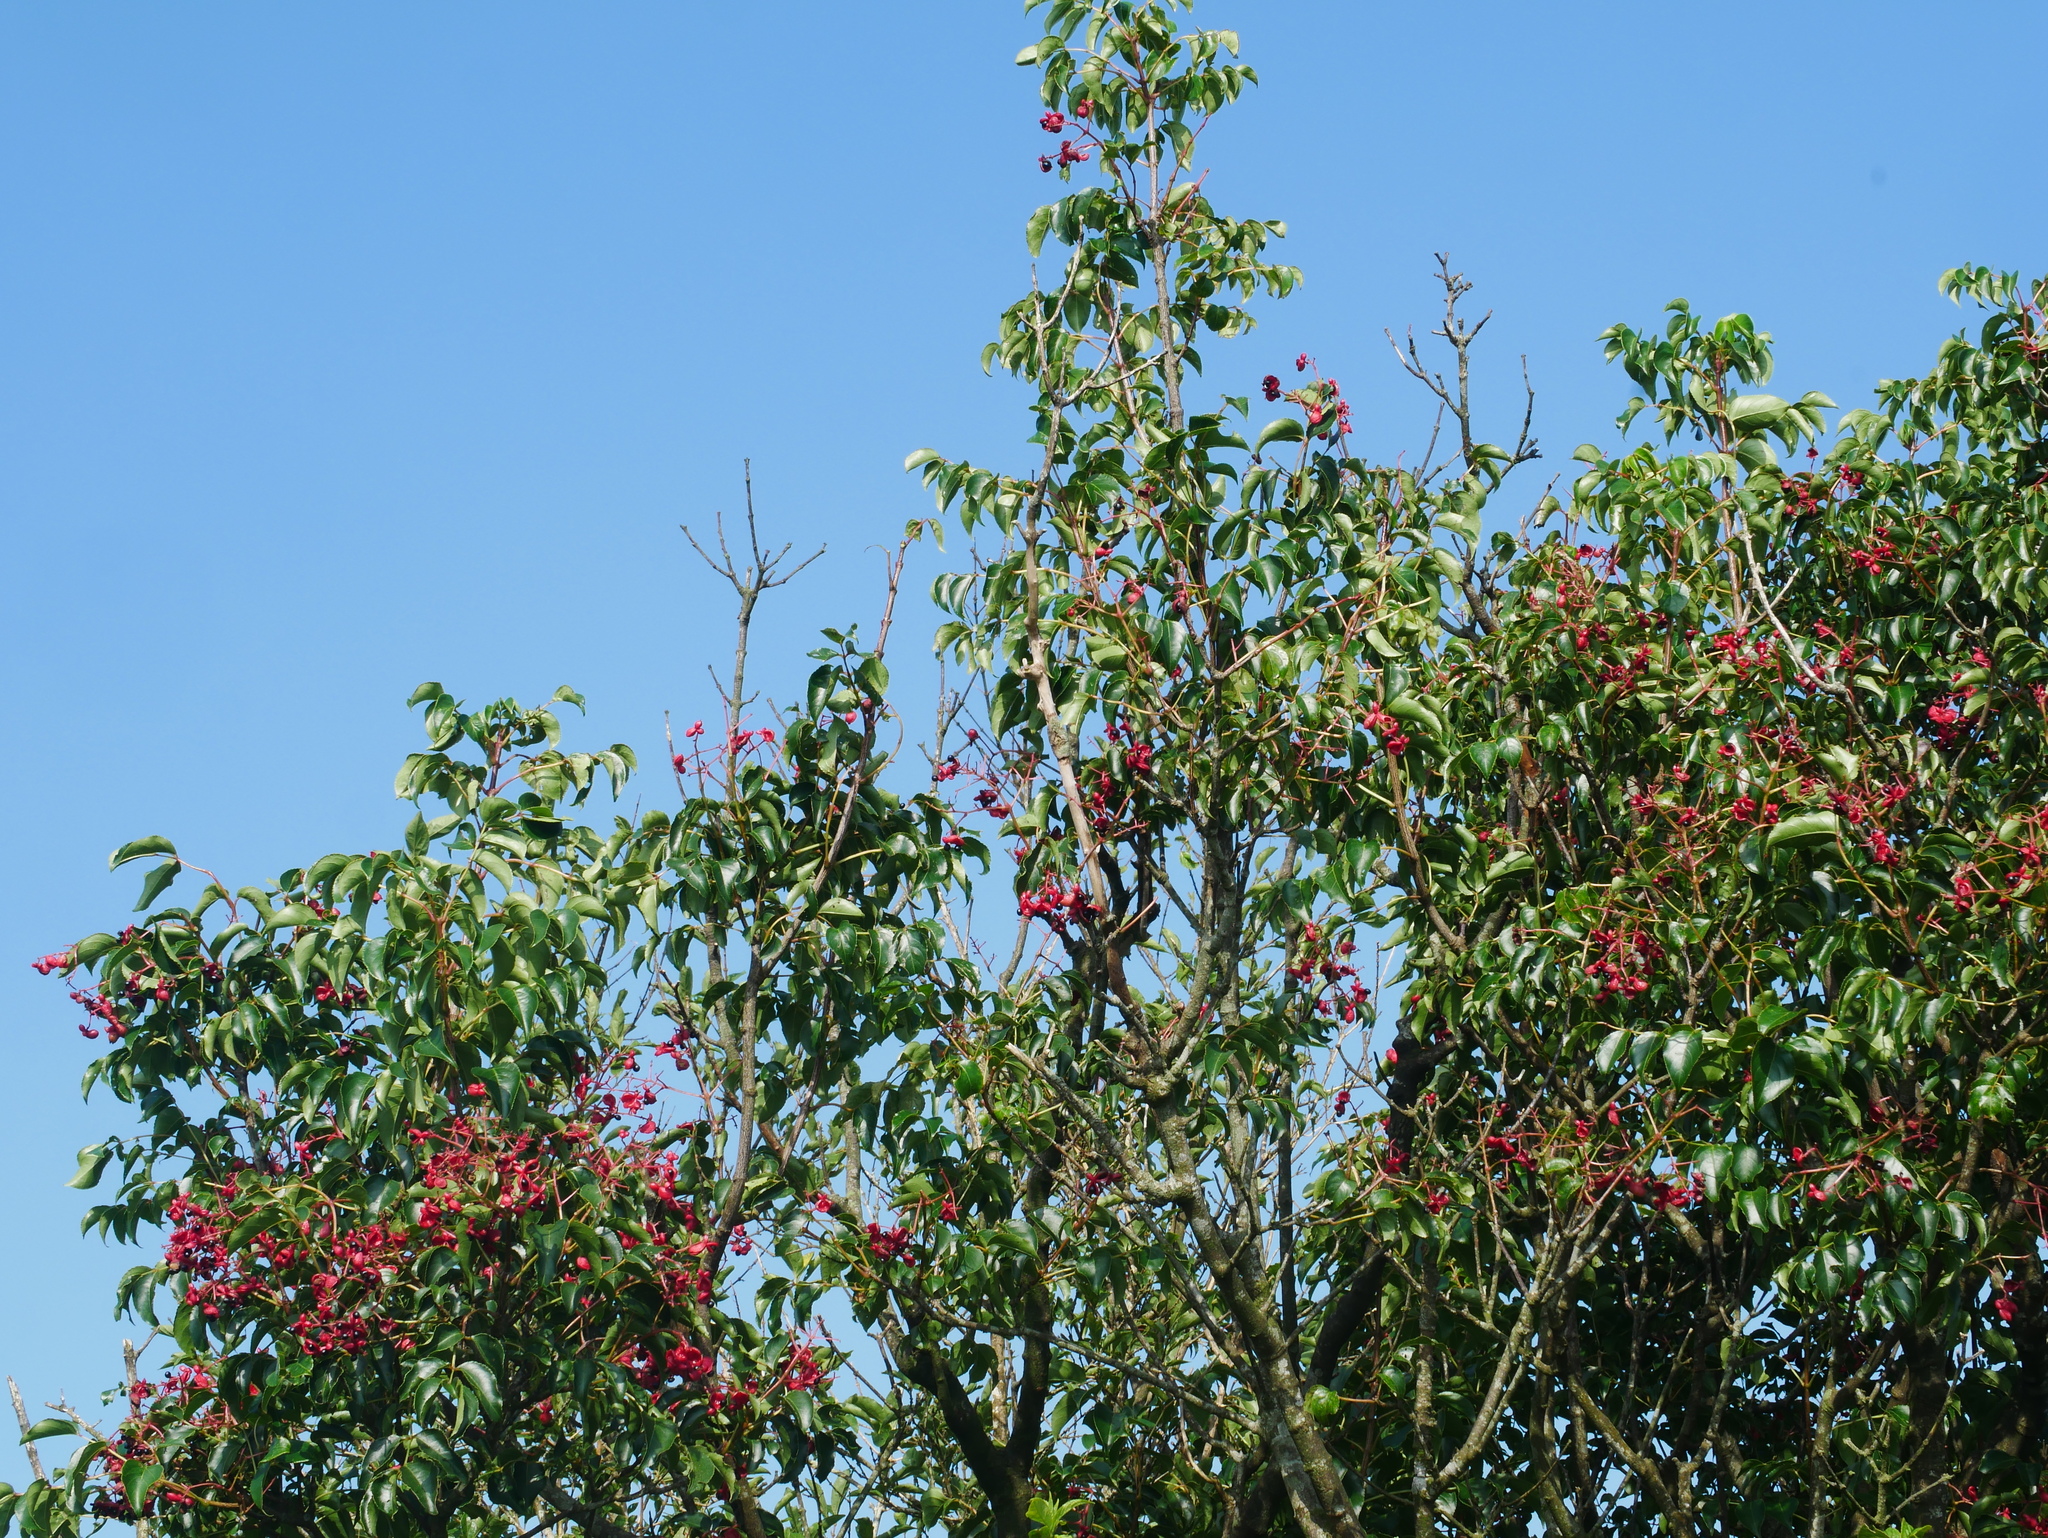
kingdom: Plantae
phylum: Tracheophyta
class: Magnoliopsida
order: Crossosomatales
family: Staphyleaceae
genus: Staphylea
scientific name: Staphylea japonica
